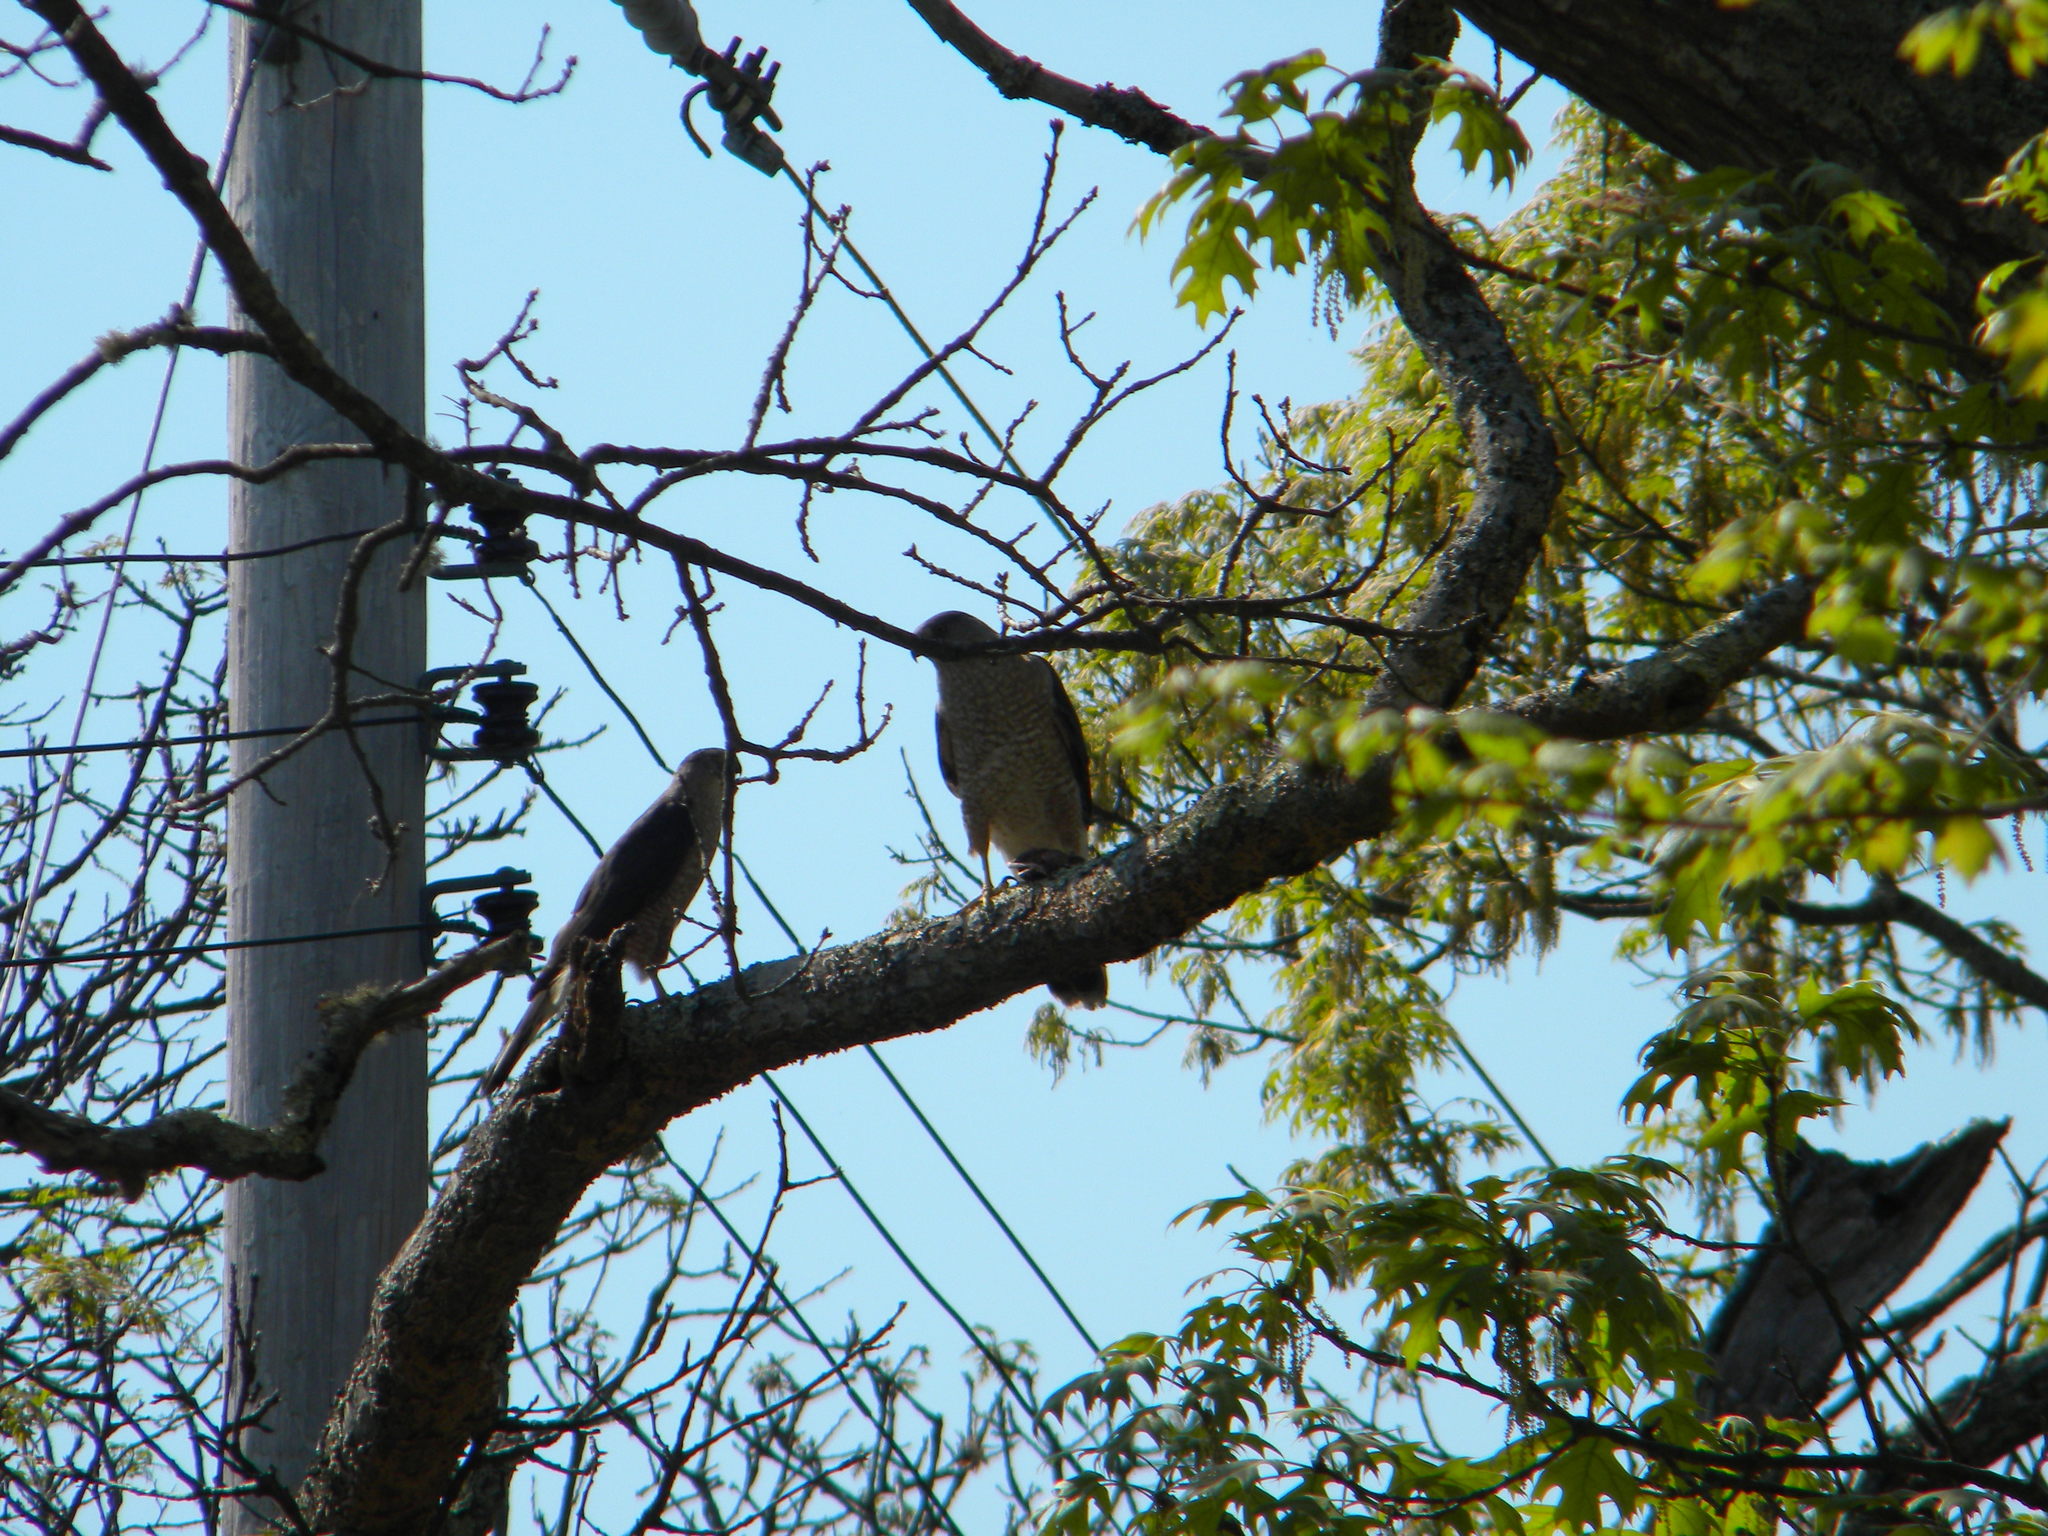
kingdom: Animalia
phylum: Chordata
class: Aves
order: Accipitriformes
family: Accipitridae
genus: Accipiter
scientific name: Accipiter cooperii
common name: Cooper's hawk
